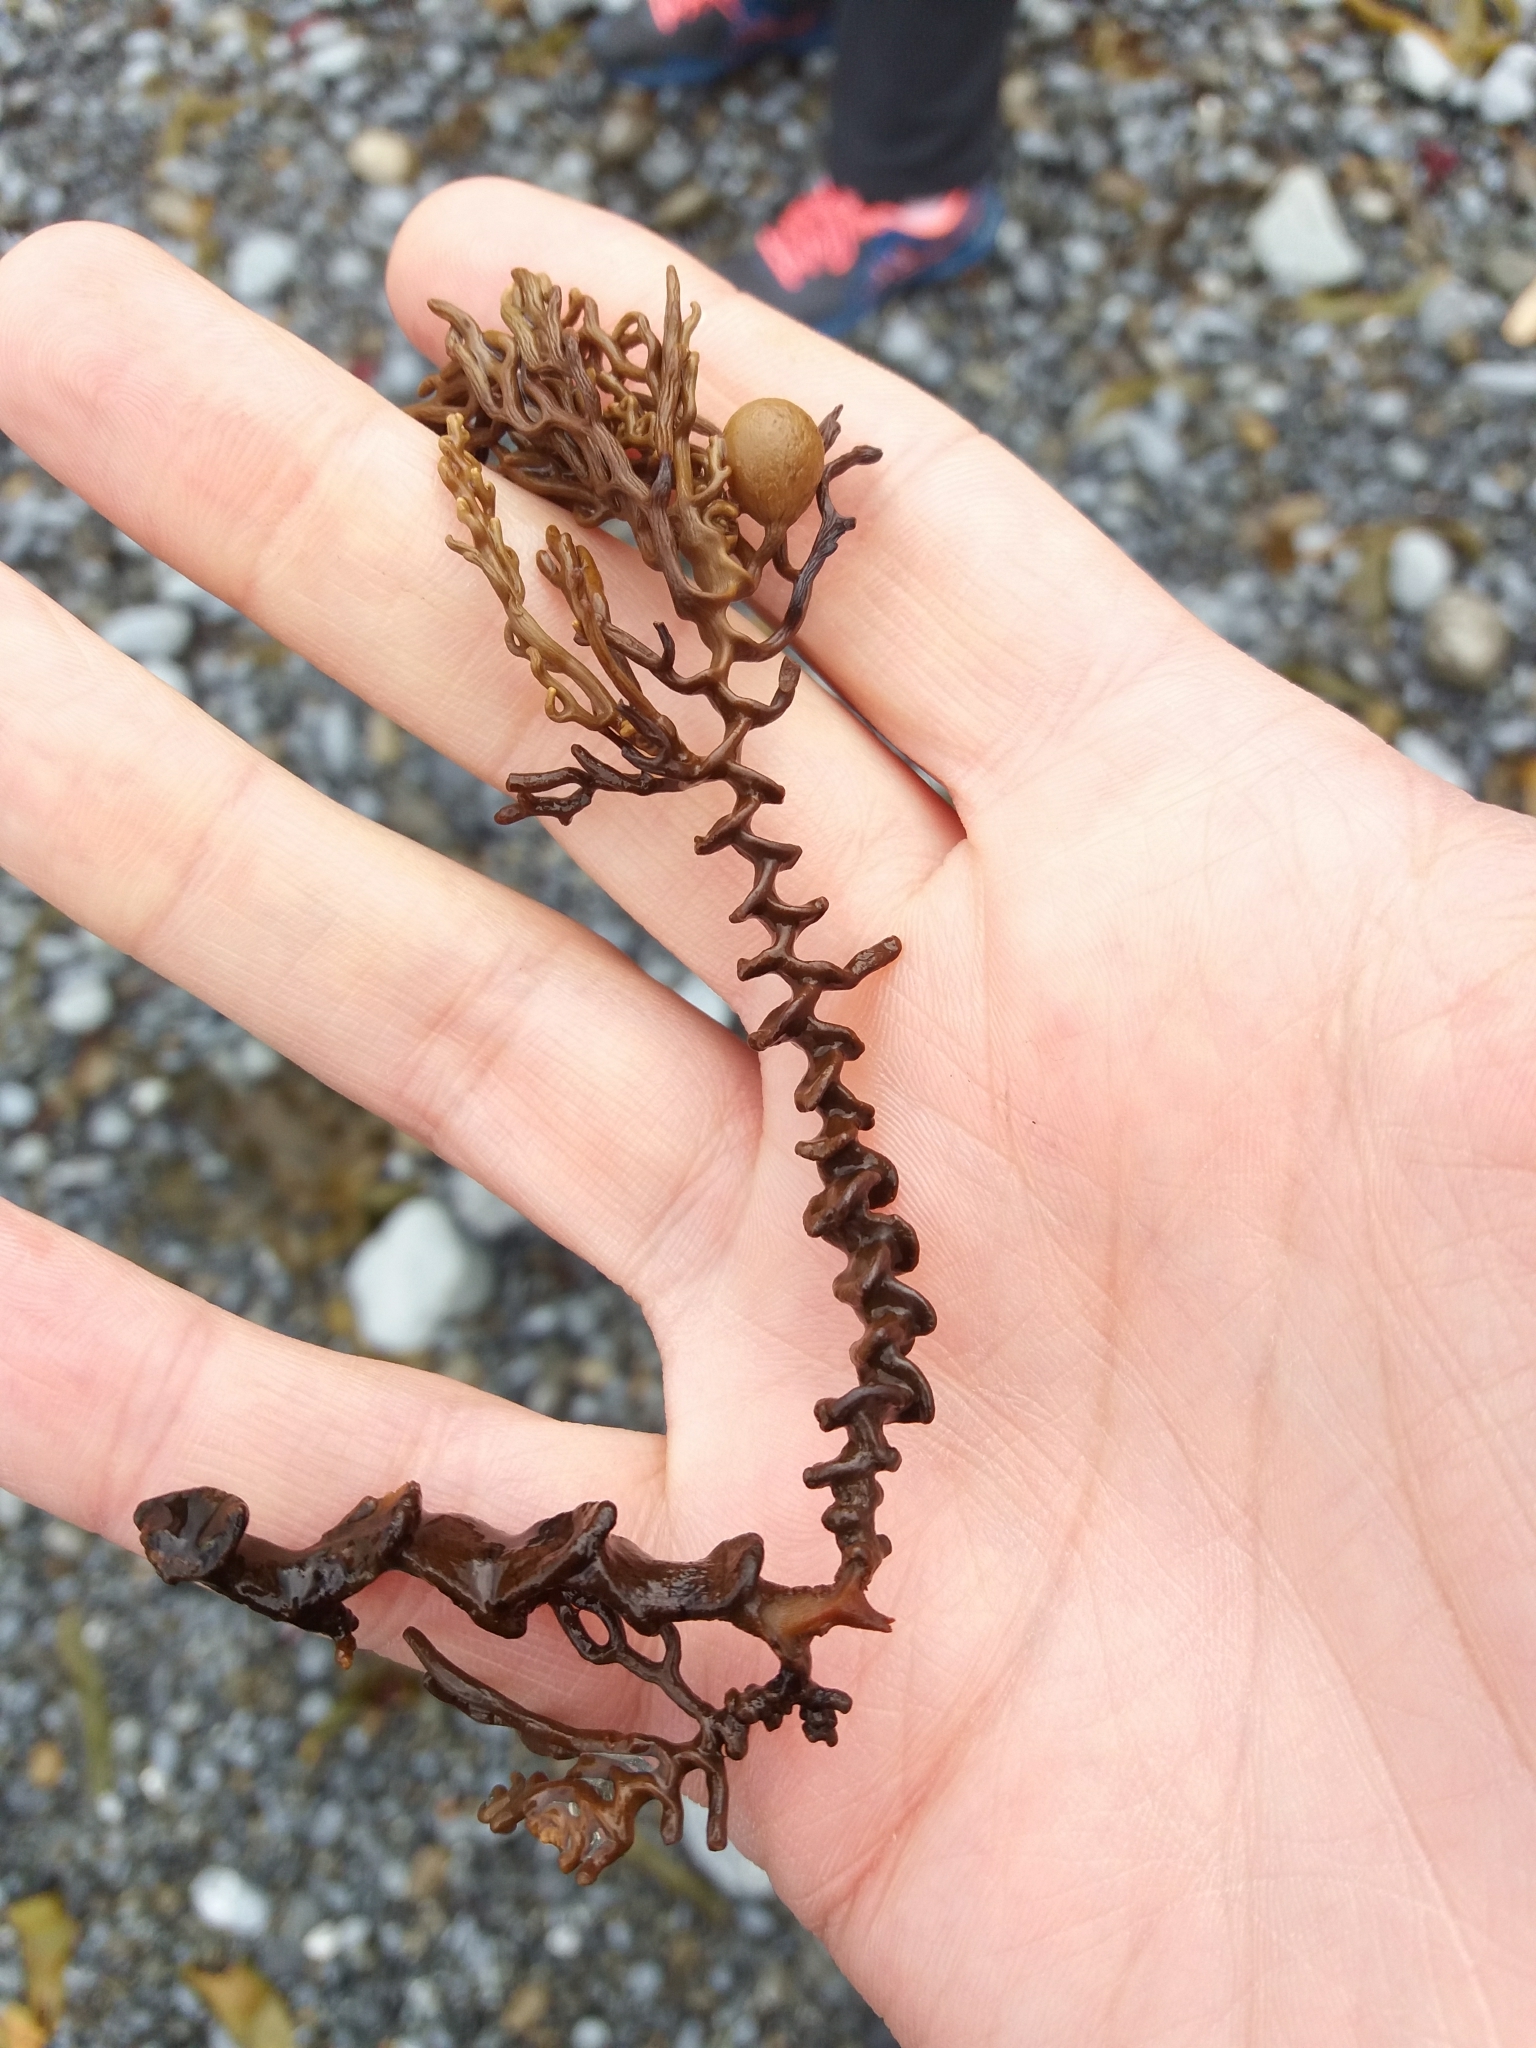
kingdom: Chromista
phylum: Ochrophyta
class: Phaeophyceae
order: Fucales
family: Sargassaceae
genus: Cystophora
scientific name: Cystophora scalaris
